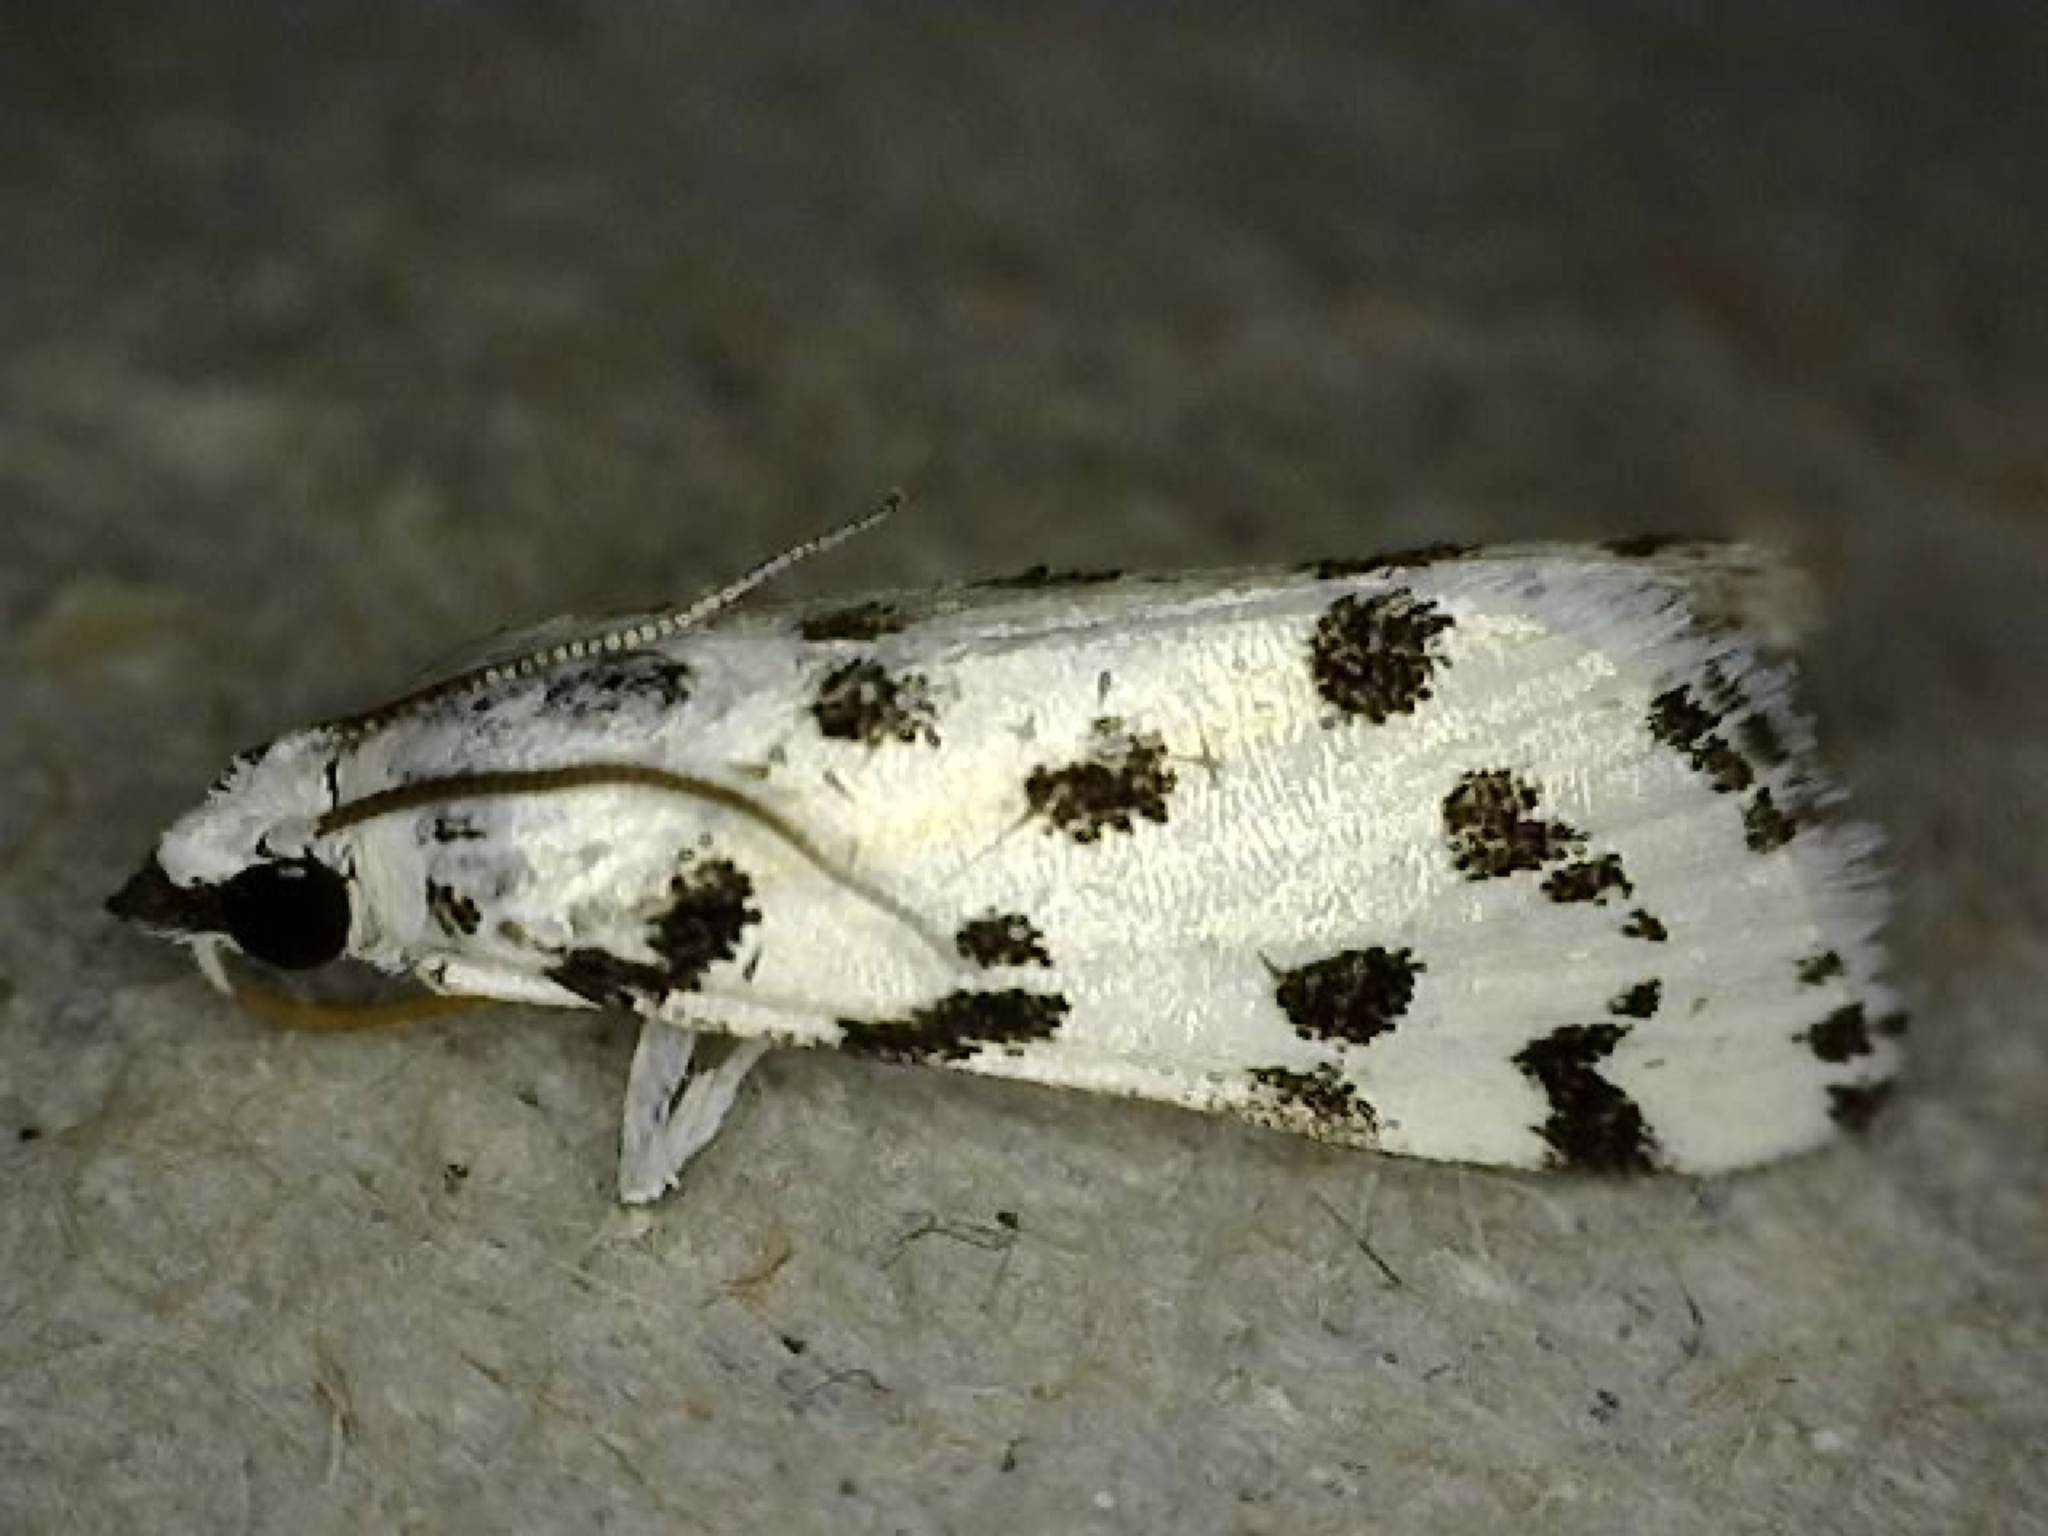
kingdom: Animalia
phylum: Arthropoda
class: Insecta
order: Lepidoptera
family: Crambidae
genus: Eustixia
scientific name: Eustixia pupula
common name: American cabbage pearl
